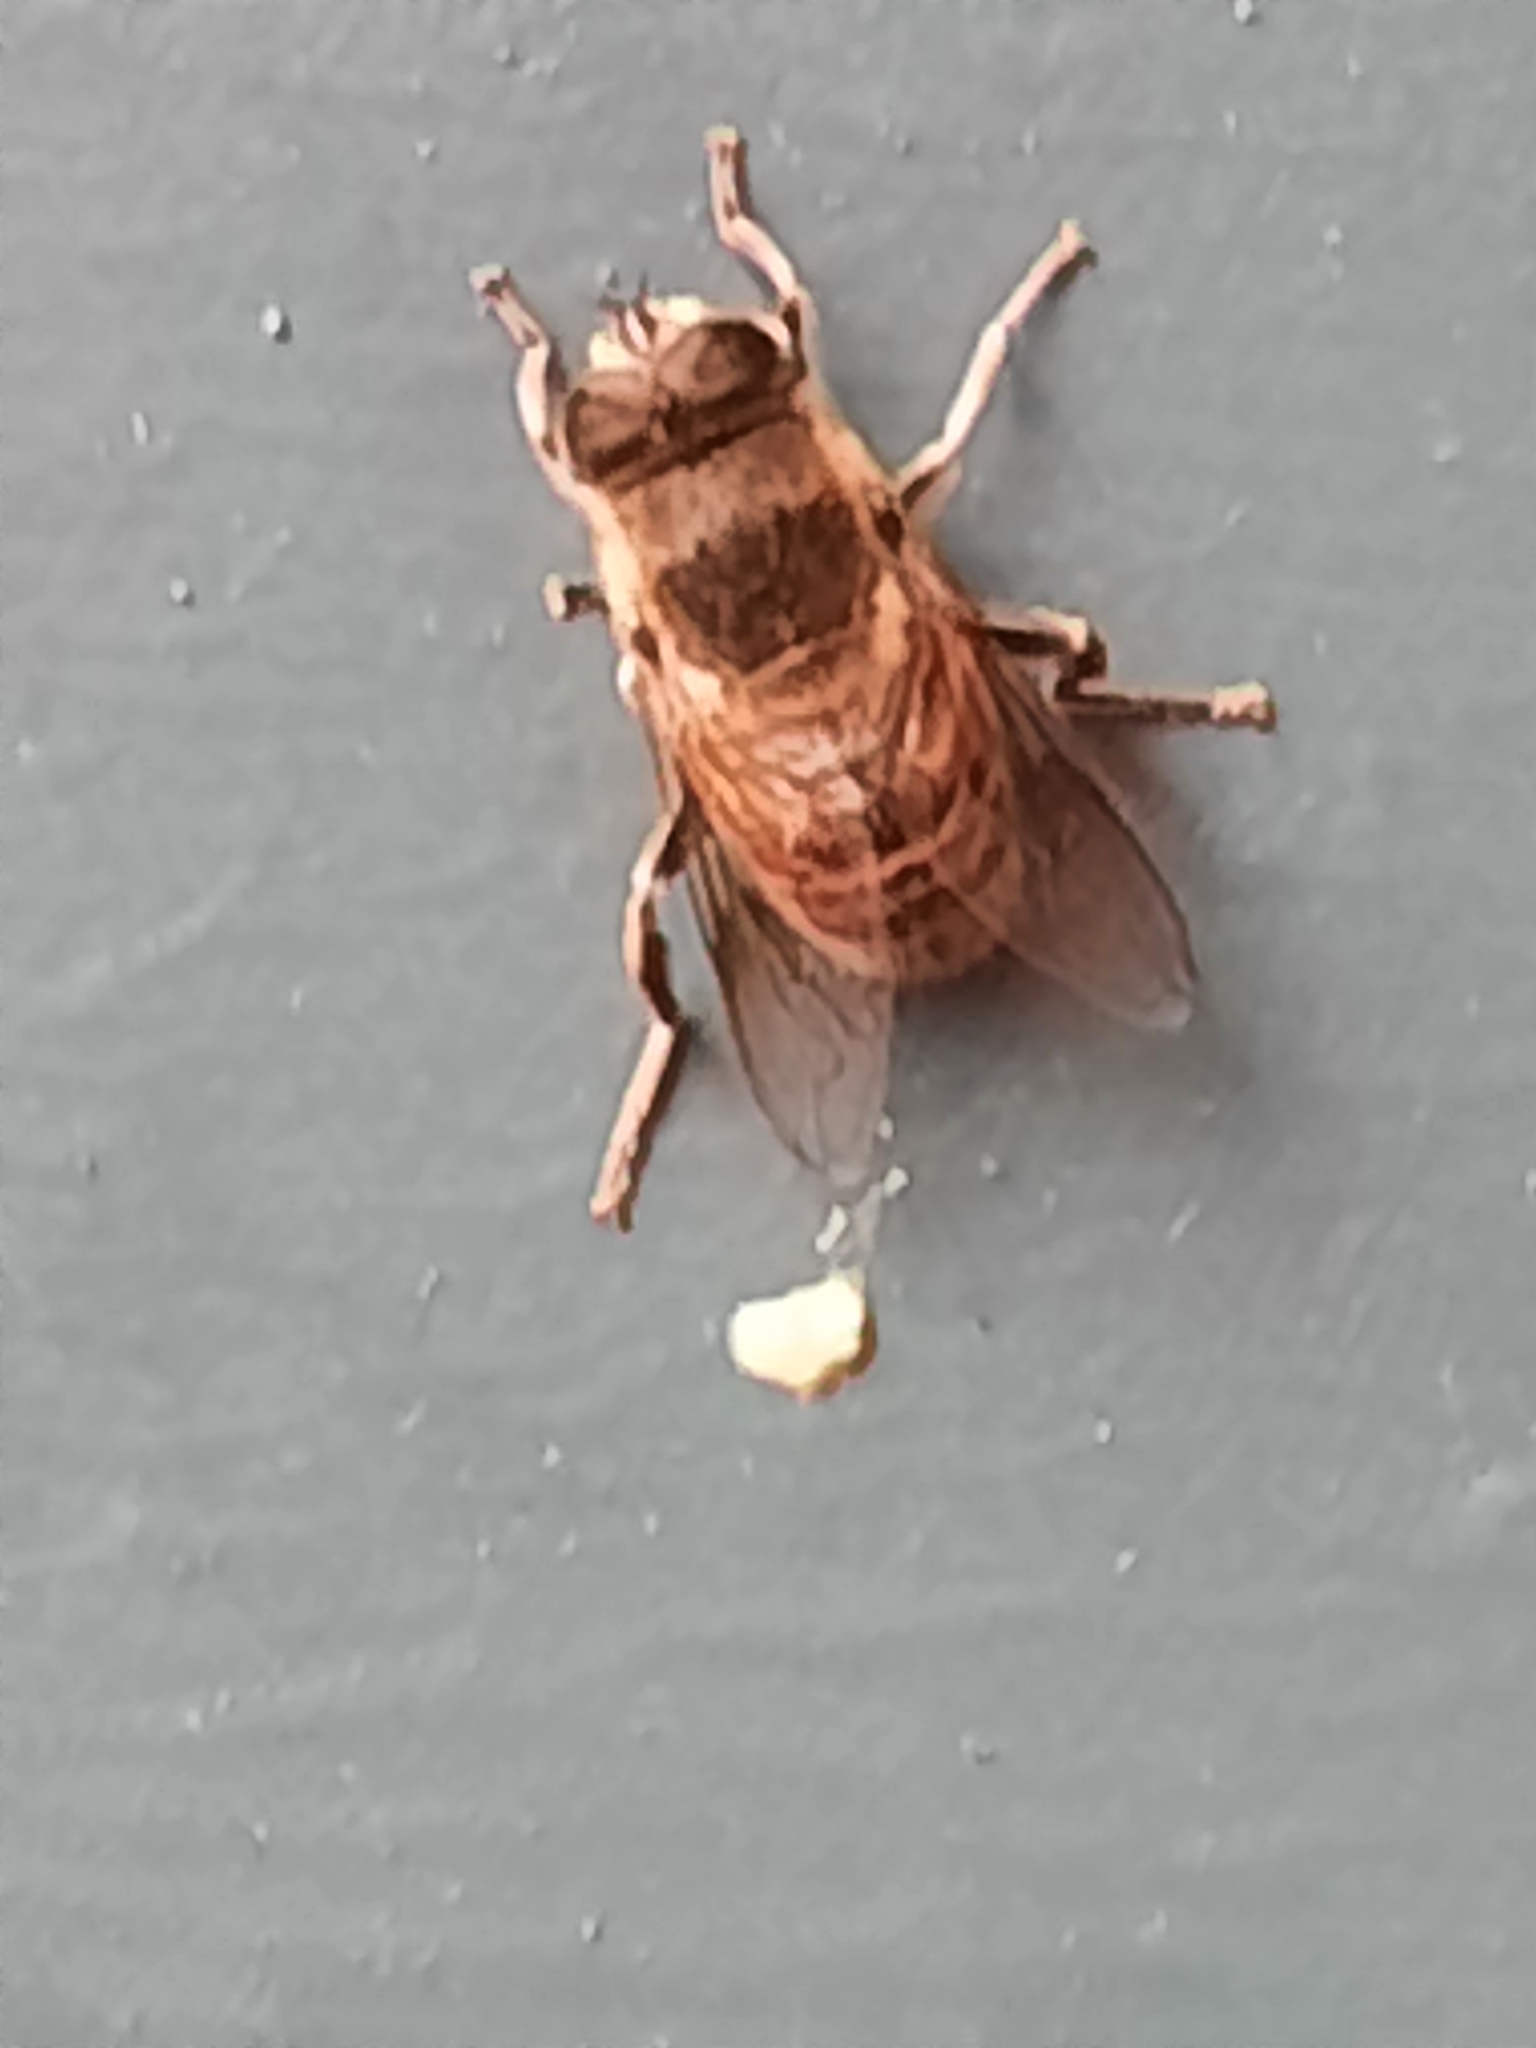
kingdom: Animalia
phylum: Arthropoda
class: Insecta
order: Diptera
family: Syrphidae
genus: Eristalis
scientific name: Eristalis tenax
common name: Drone fly
